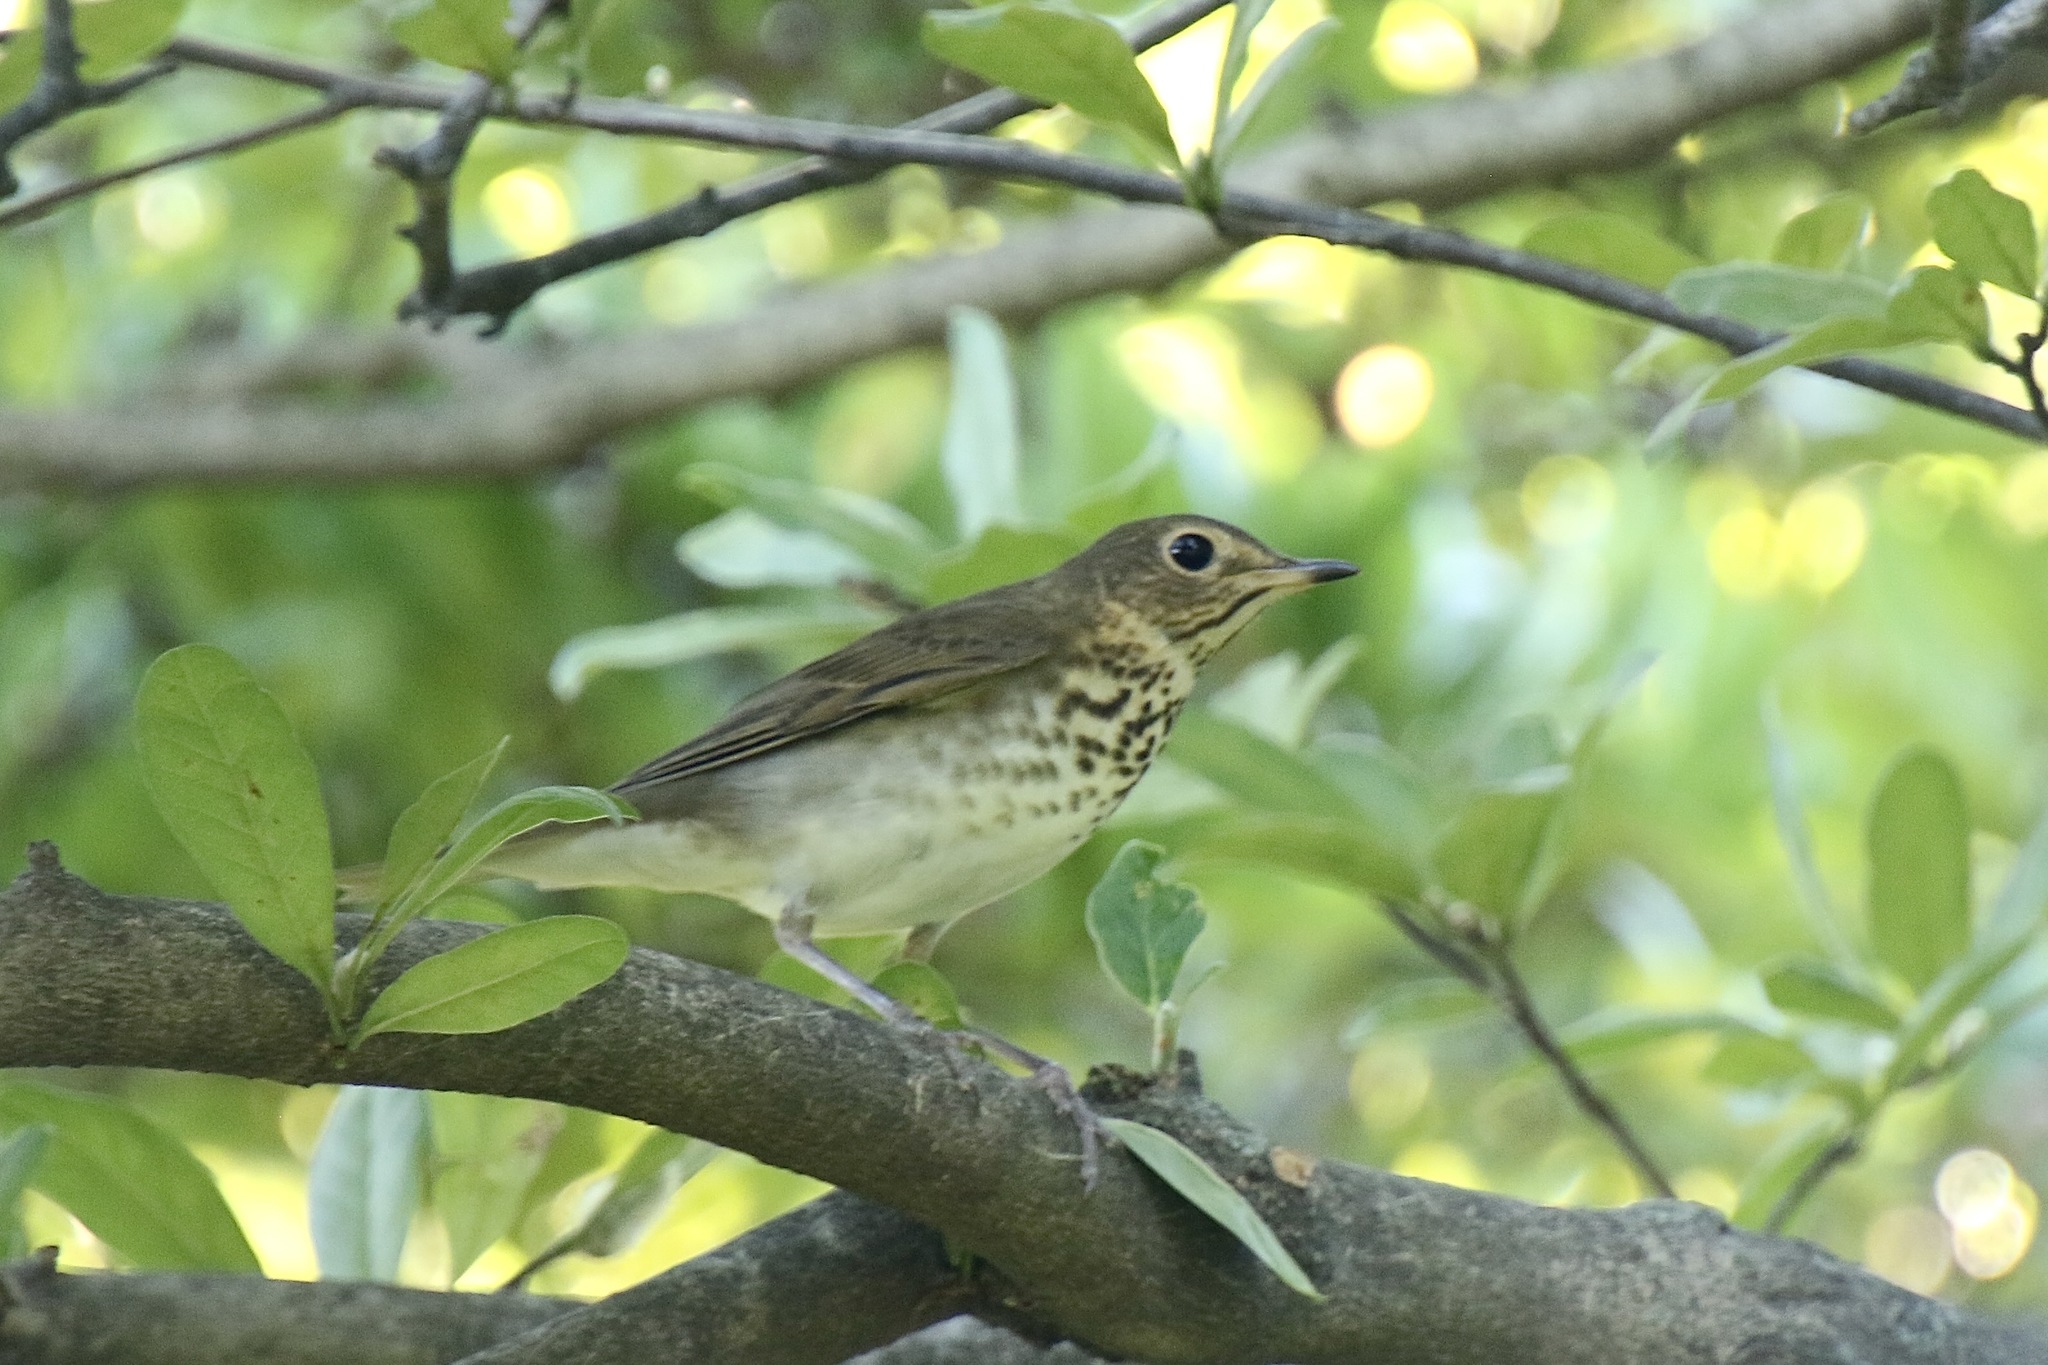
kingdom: Animalia
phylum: Chordata
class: Aves
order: Passeriformes
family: Turdidae
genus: Catharus
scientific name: Catharus ustulatus
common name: Swainson's thrush
